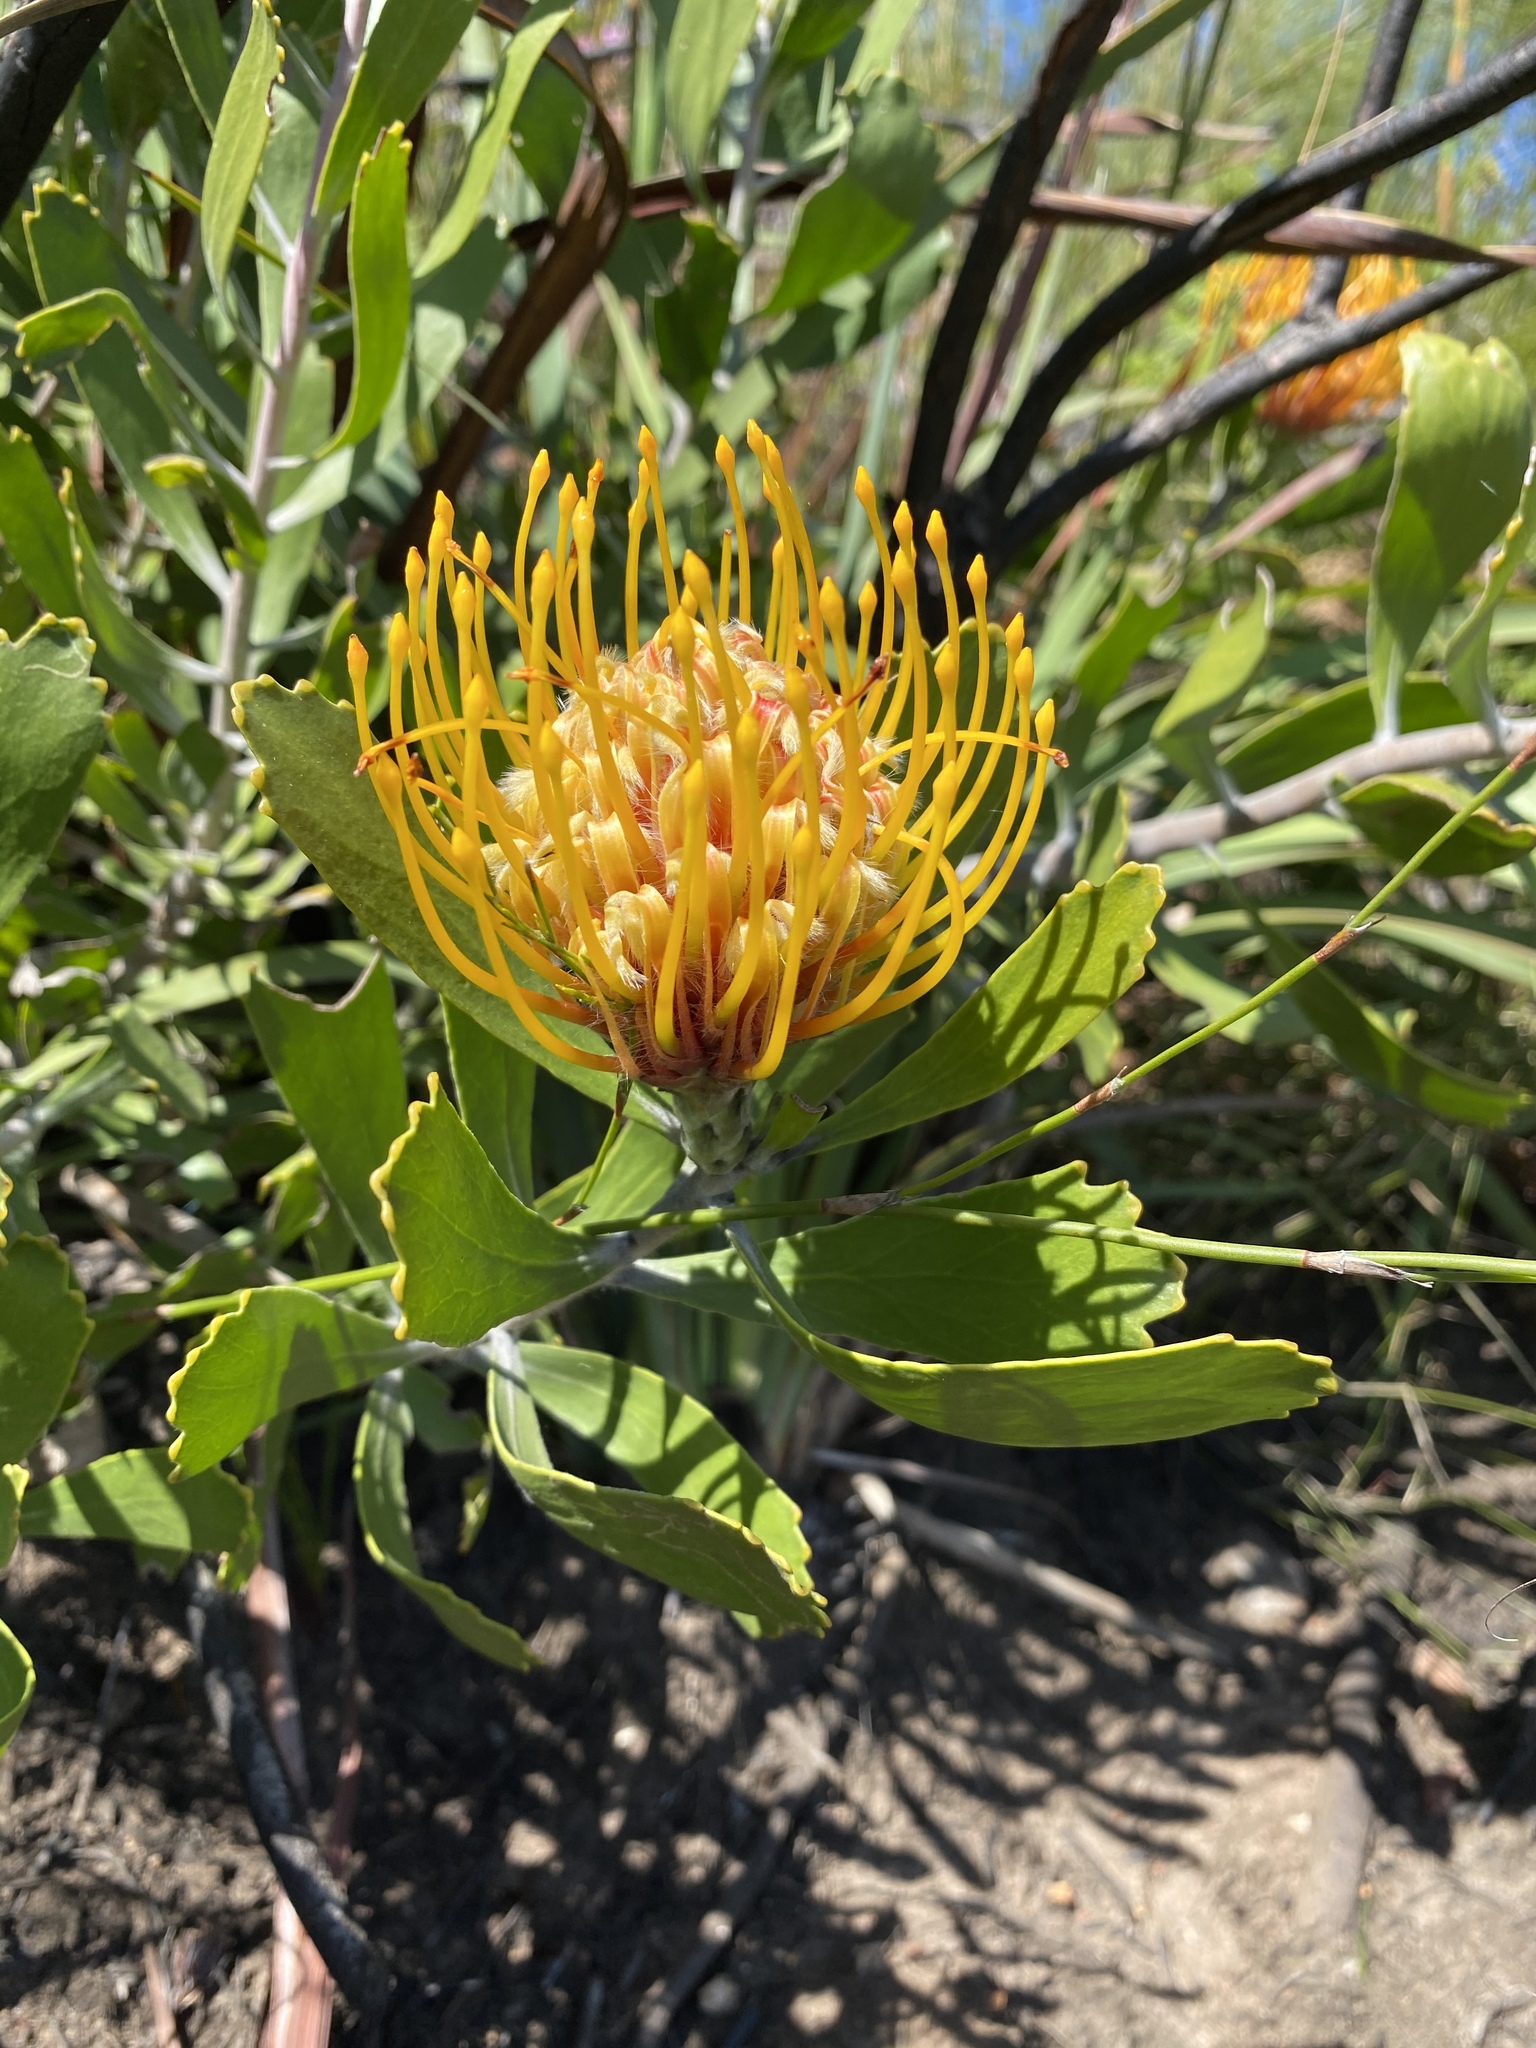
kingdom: Plantae
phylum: Tracheophyta
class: Magnoliopsida
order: Proteales
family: Proteaceae
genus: Leucospermum
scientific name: Leucospermum cuneiforme
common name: Common pincushion
